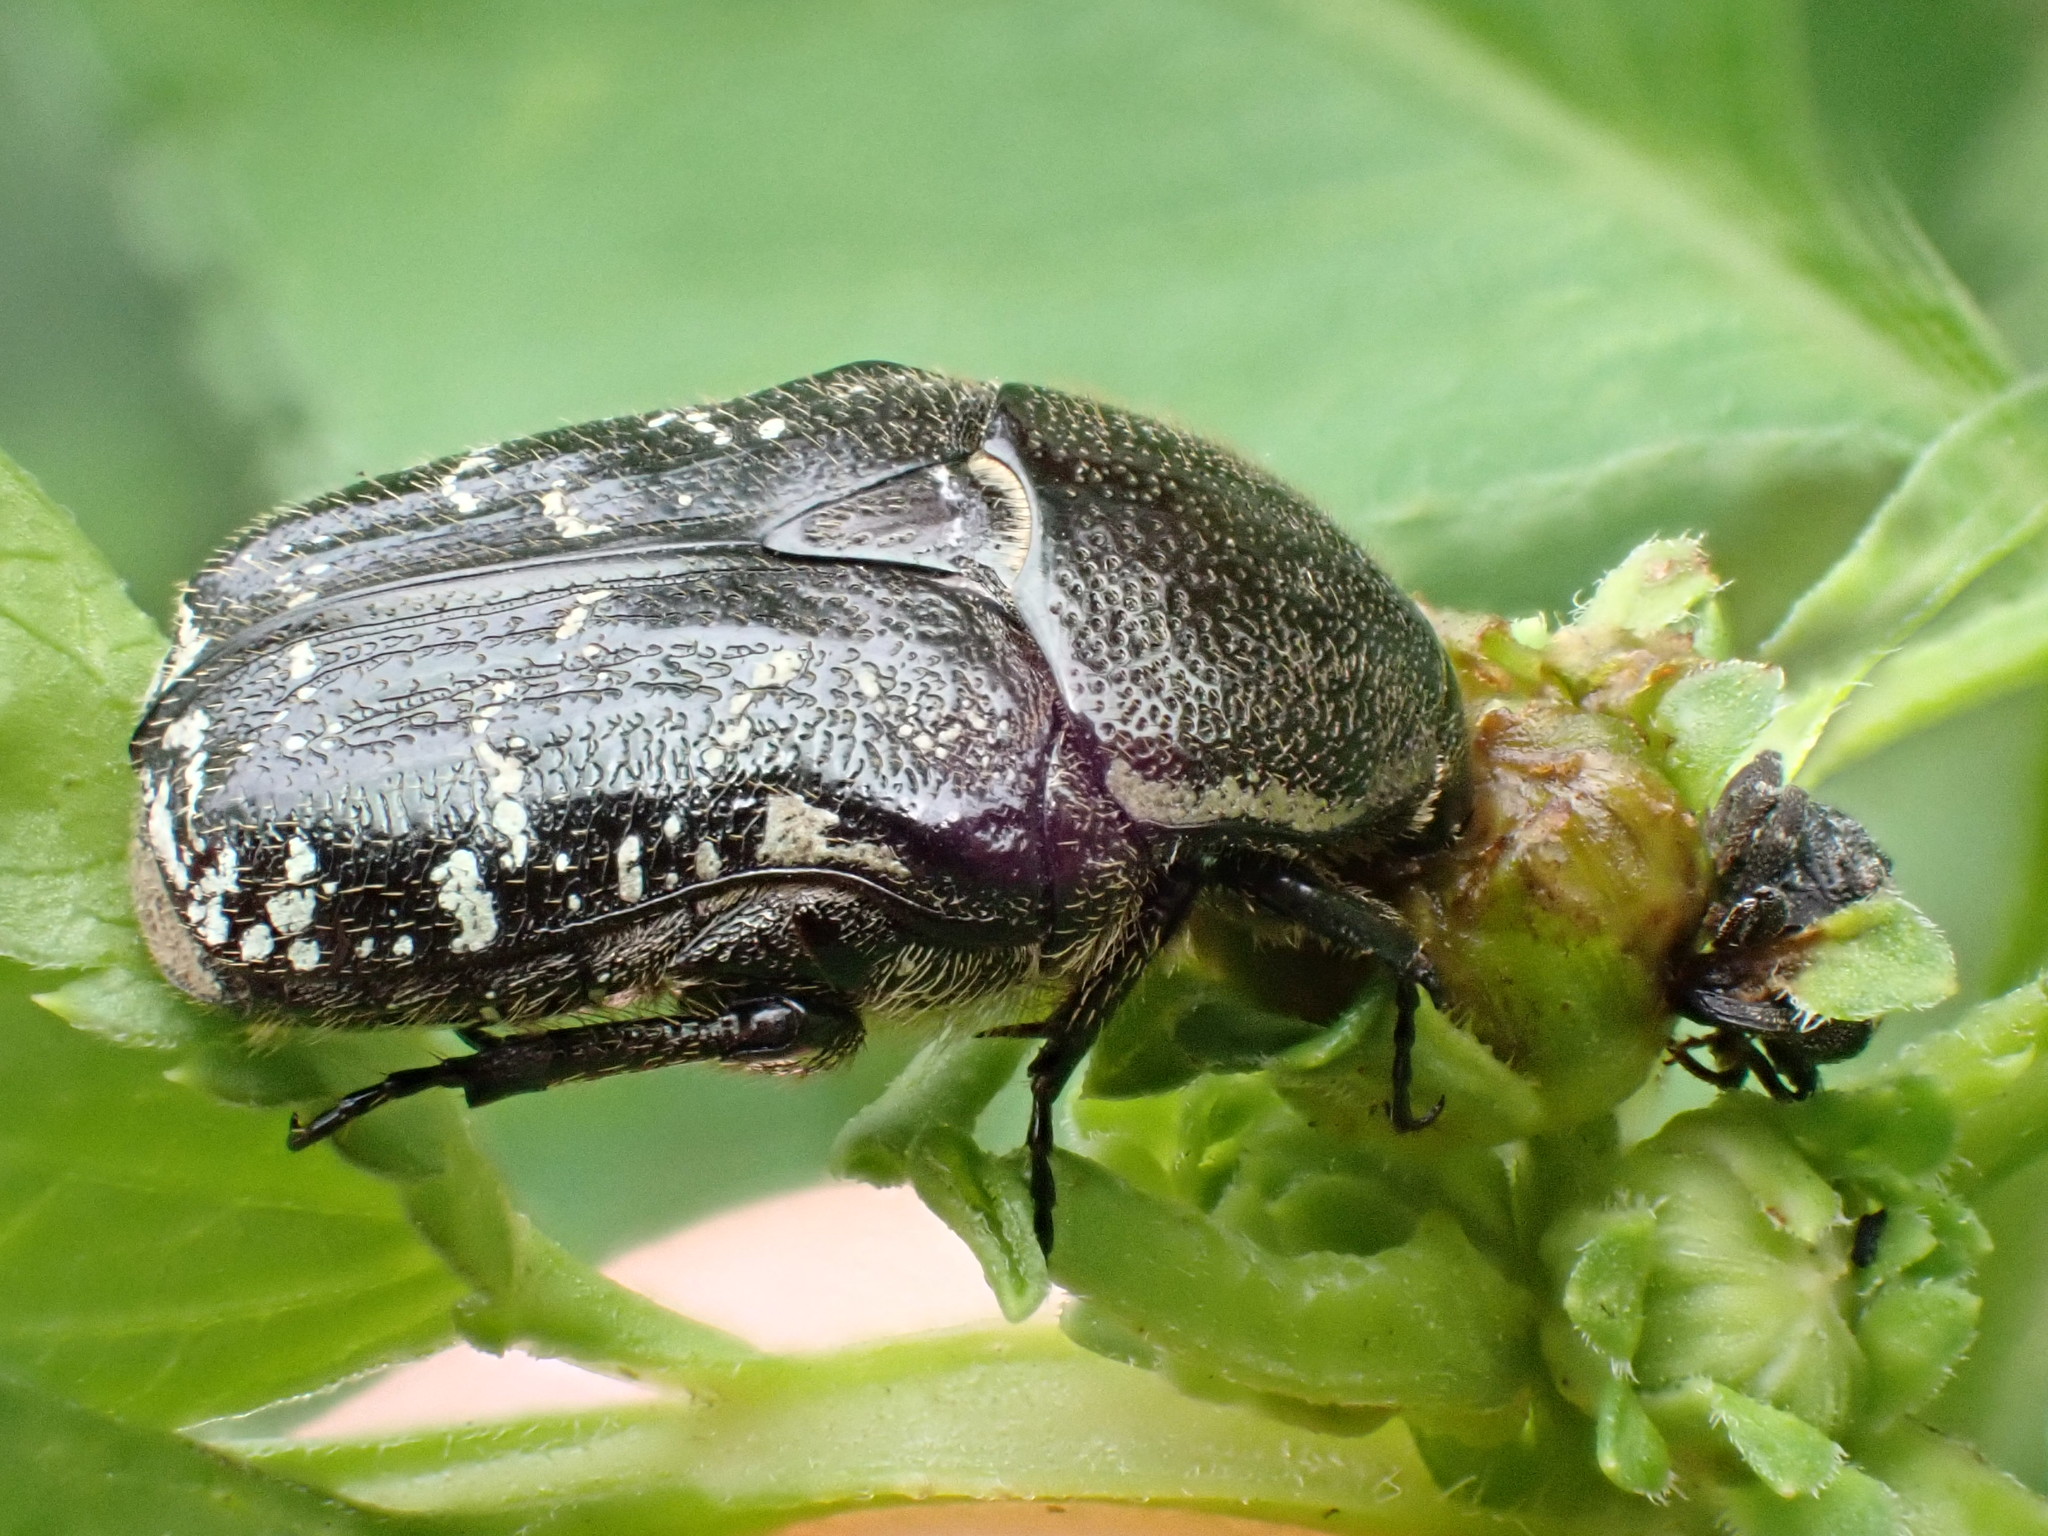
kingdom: Animalia
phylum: Arthropoda
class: Insecta
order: Coleoptera
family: Scarabaeidae
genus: Euphoria
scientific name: Euphoria sepulcralis
